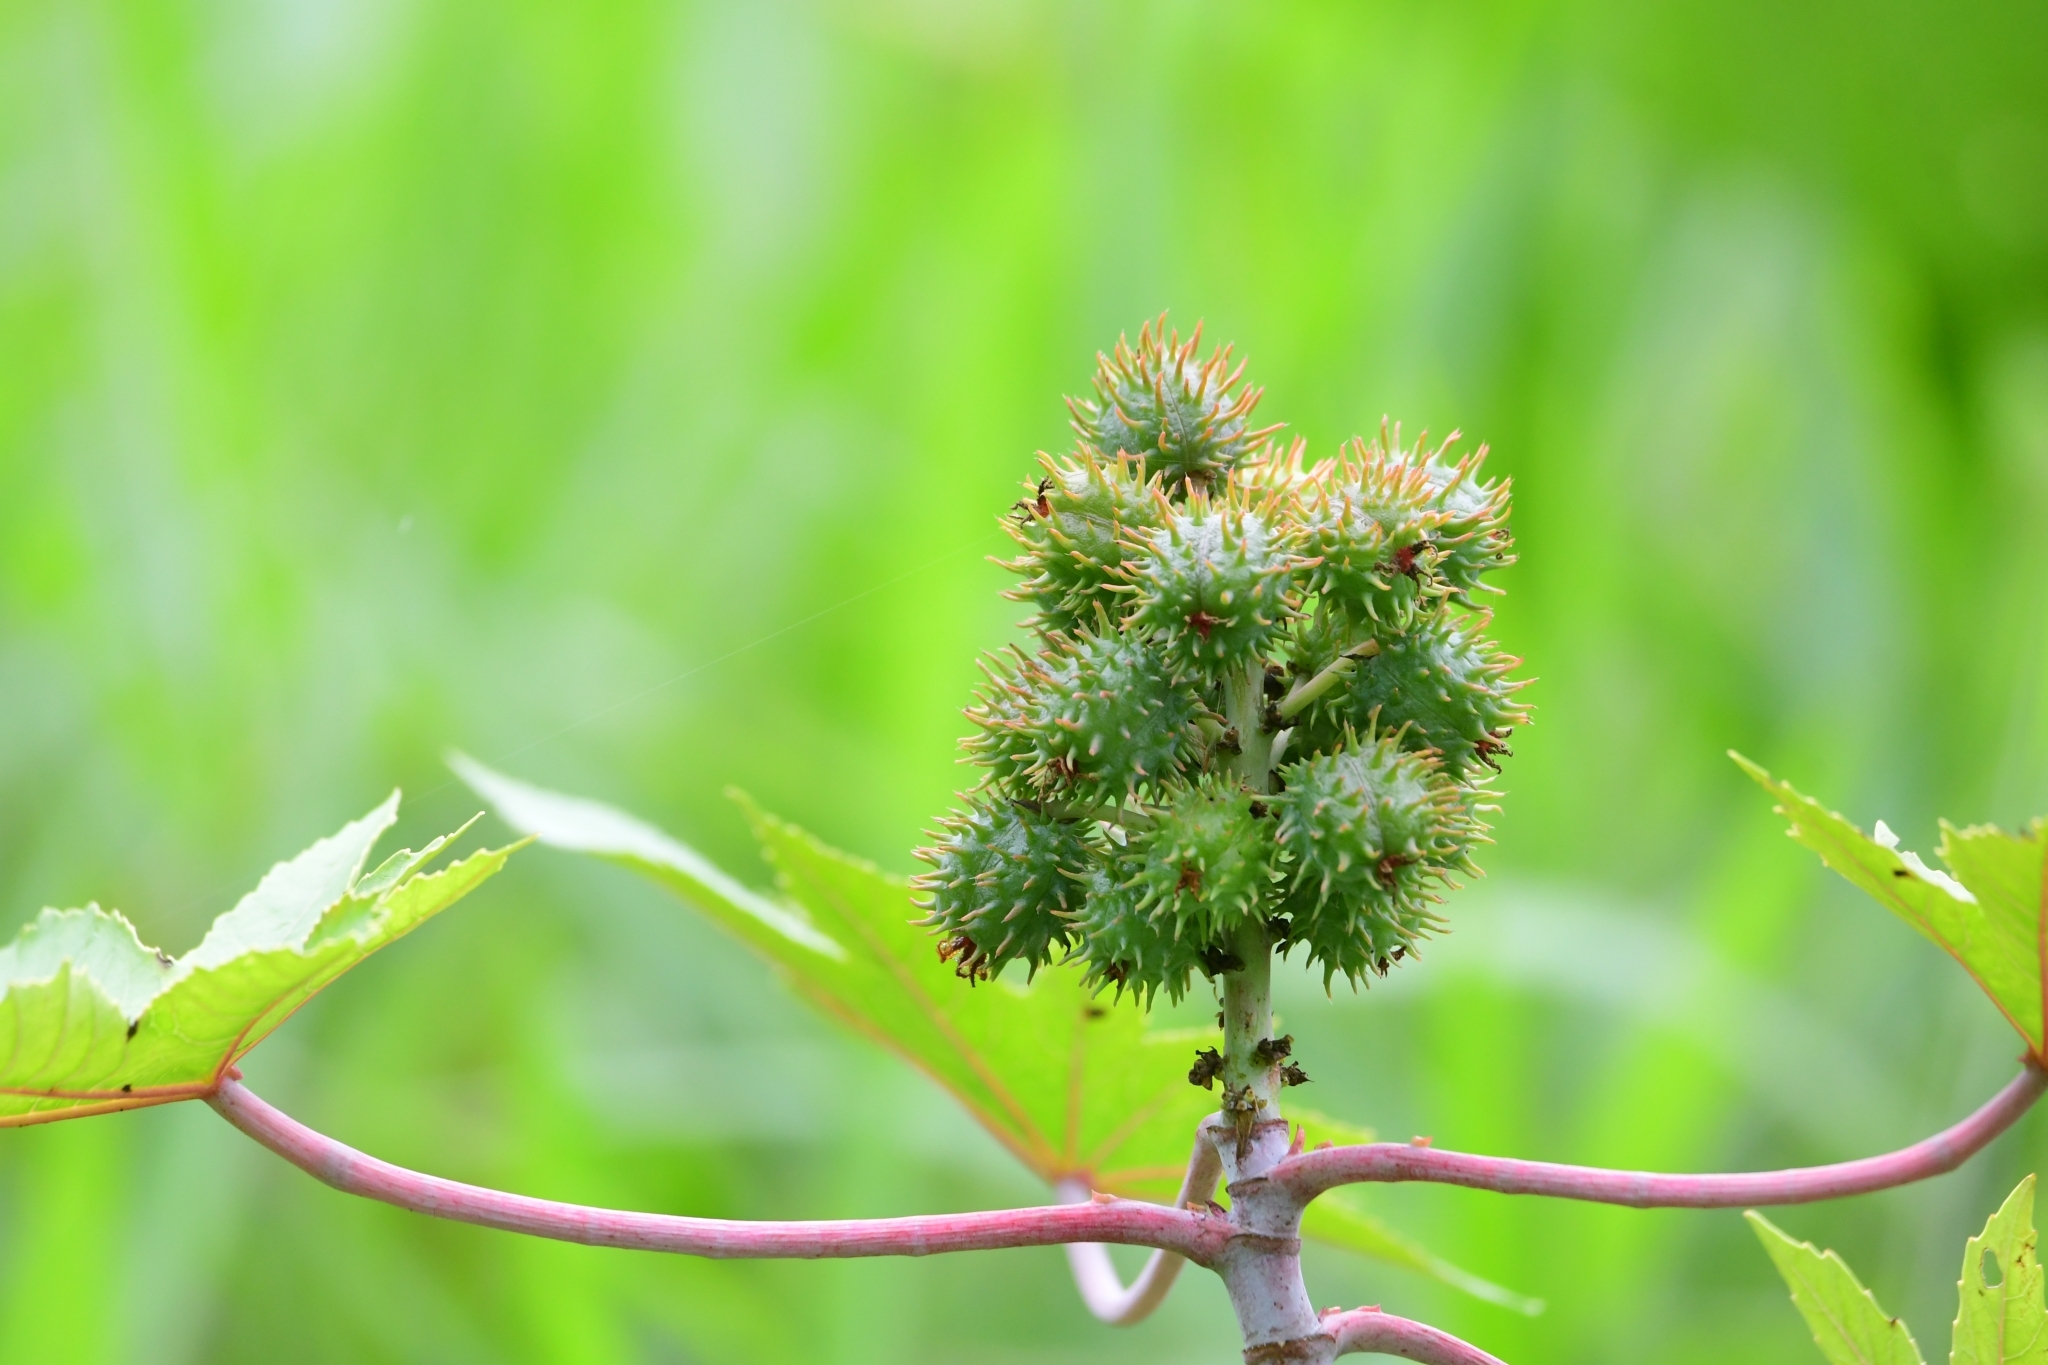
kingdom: Plantae
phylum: Tracheophyta
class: Magnoliopsida
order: Malpighiales
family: Euphorbiaceae
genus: Ricinus
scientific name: Ricinus communis
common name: Castor-oil-plant
